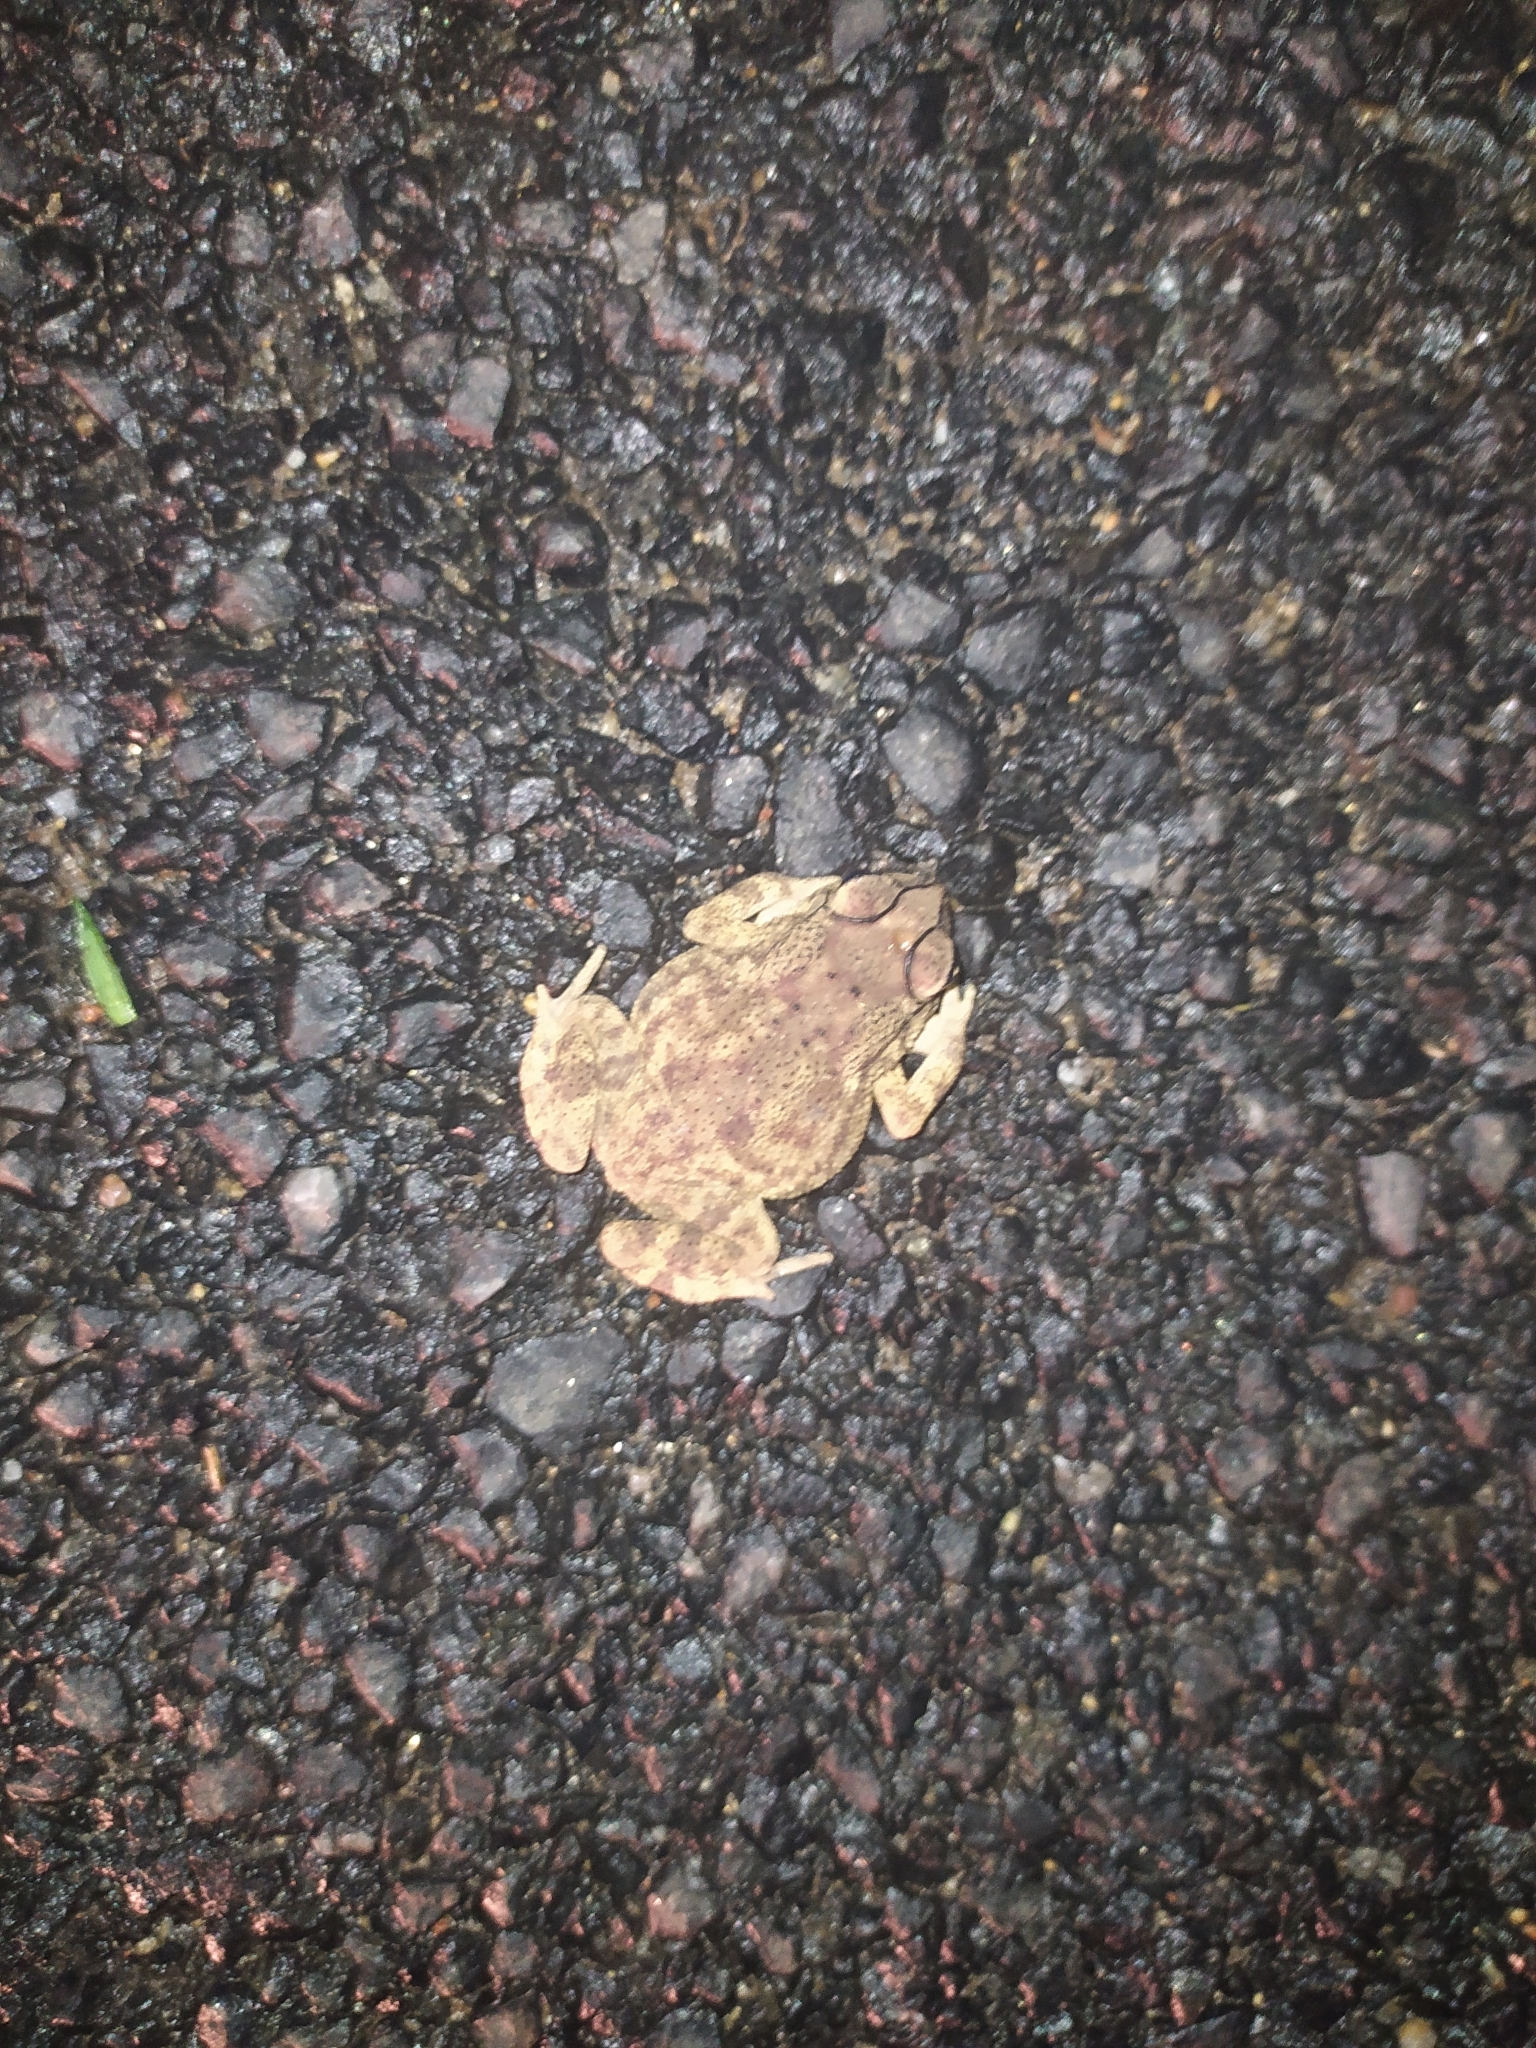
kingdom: Animalia
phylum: Chordata
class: Amphibia
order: Anura
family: Bufonidae
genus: Duttaphrynus
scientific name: Duttaphrynus melanostictus
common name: Common sunda toad
